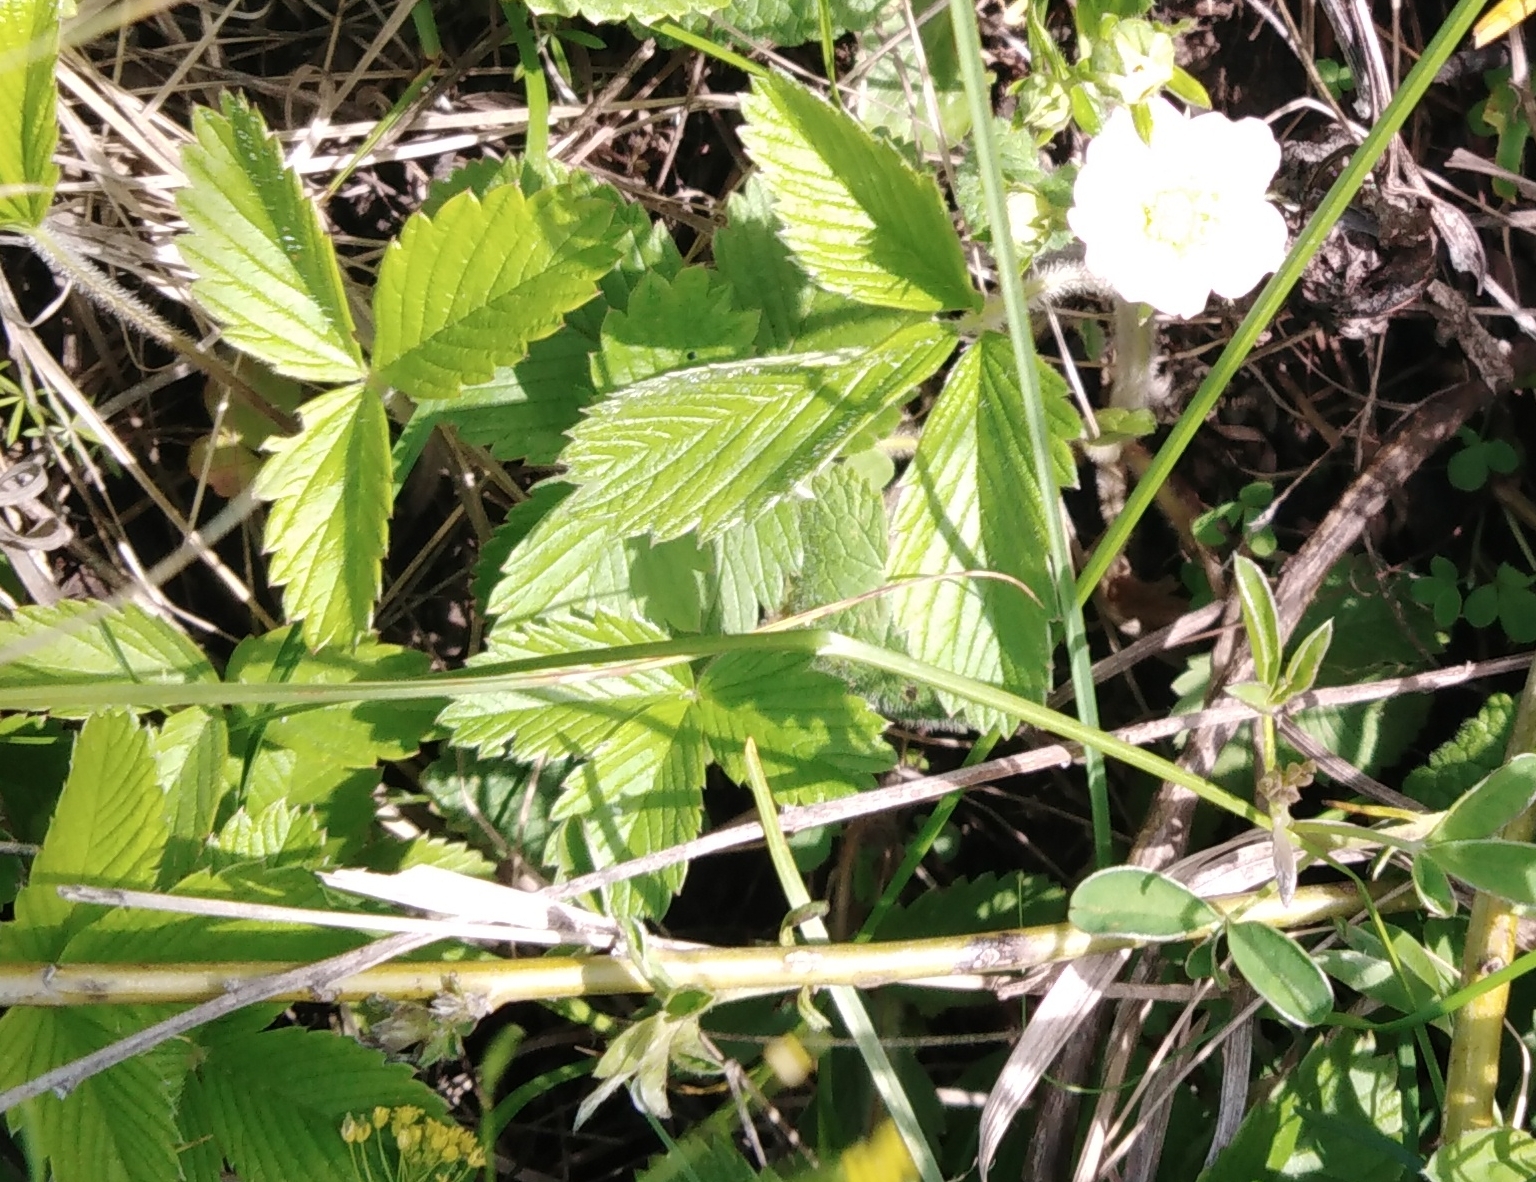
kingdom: Plantae
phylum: Tracheophyta
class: Magnoliopsida
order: Rosales
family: Rosaceae
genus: Fragaria
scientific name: Fragaria viridis
